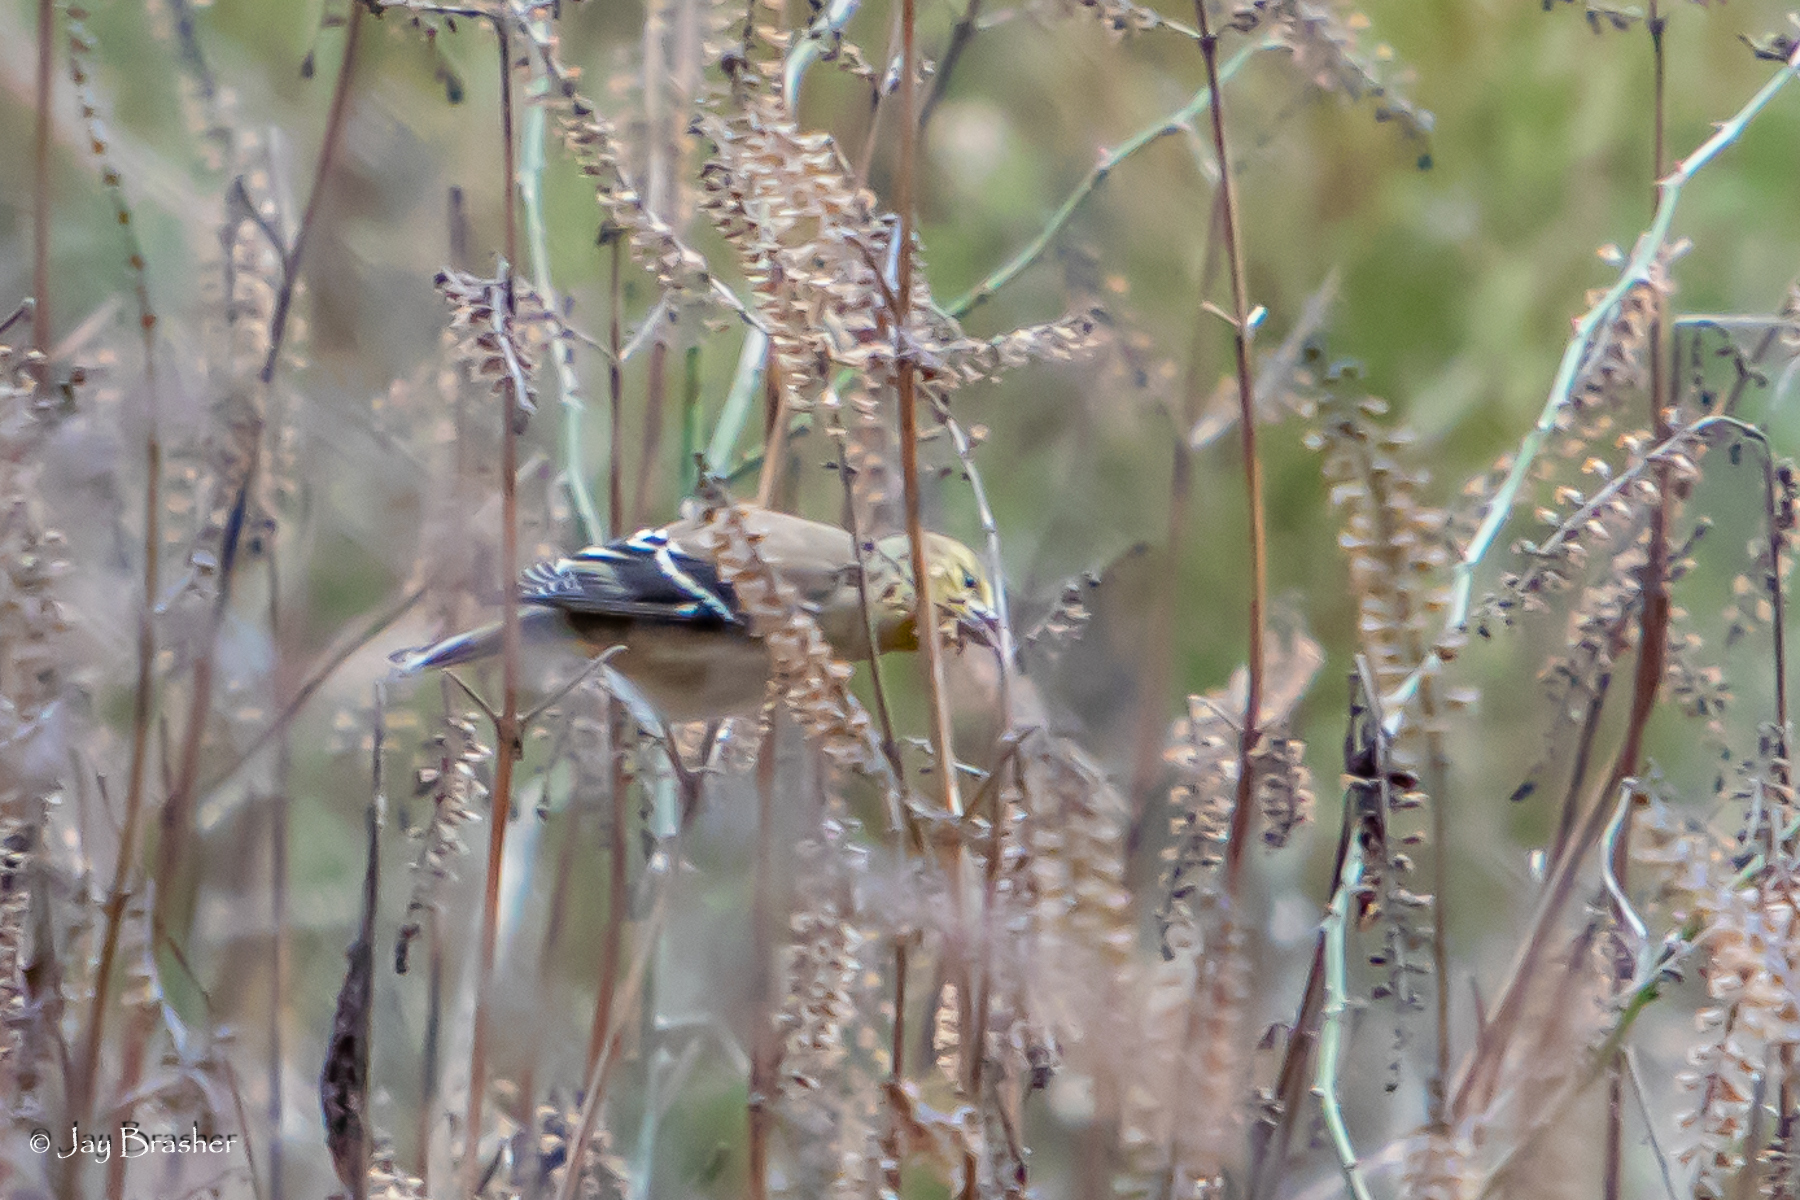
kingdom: Animalia
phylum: Chordata
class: Aves
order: Passeriformes
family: Fringillidae
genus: Spinus
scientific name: Spinus tristis
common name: American goldfinch
